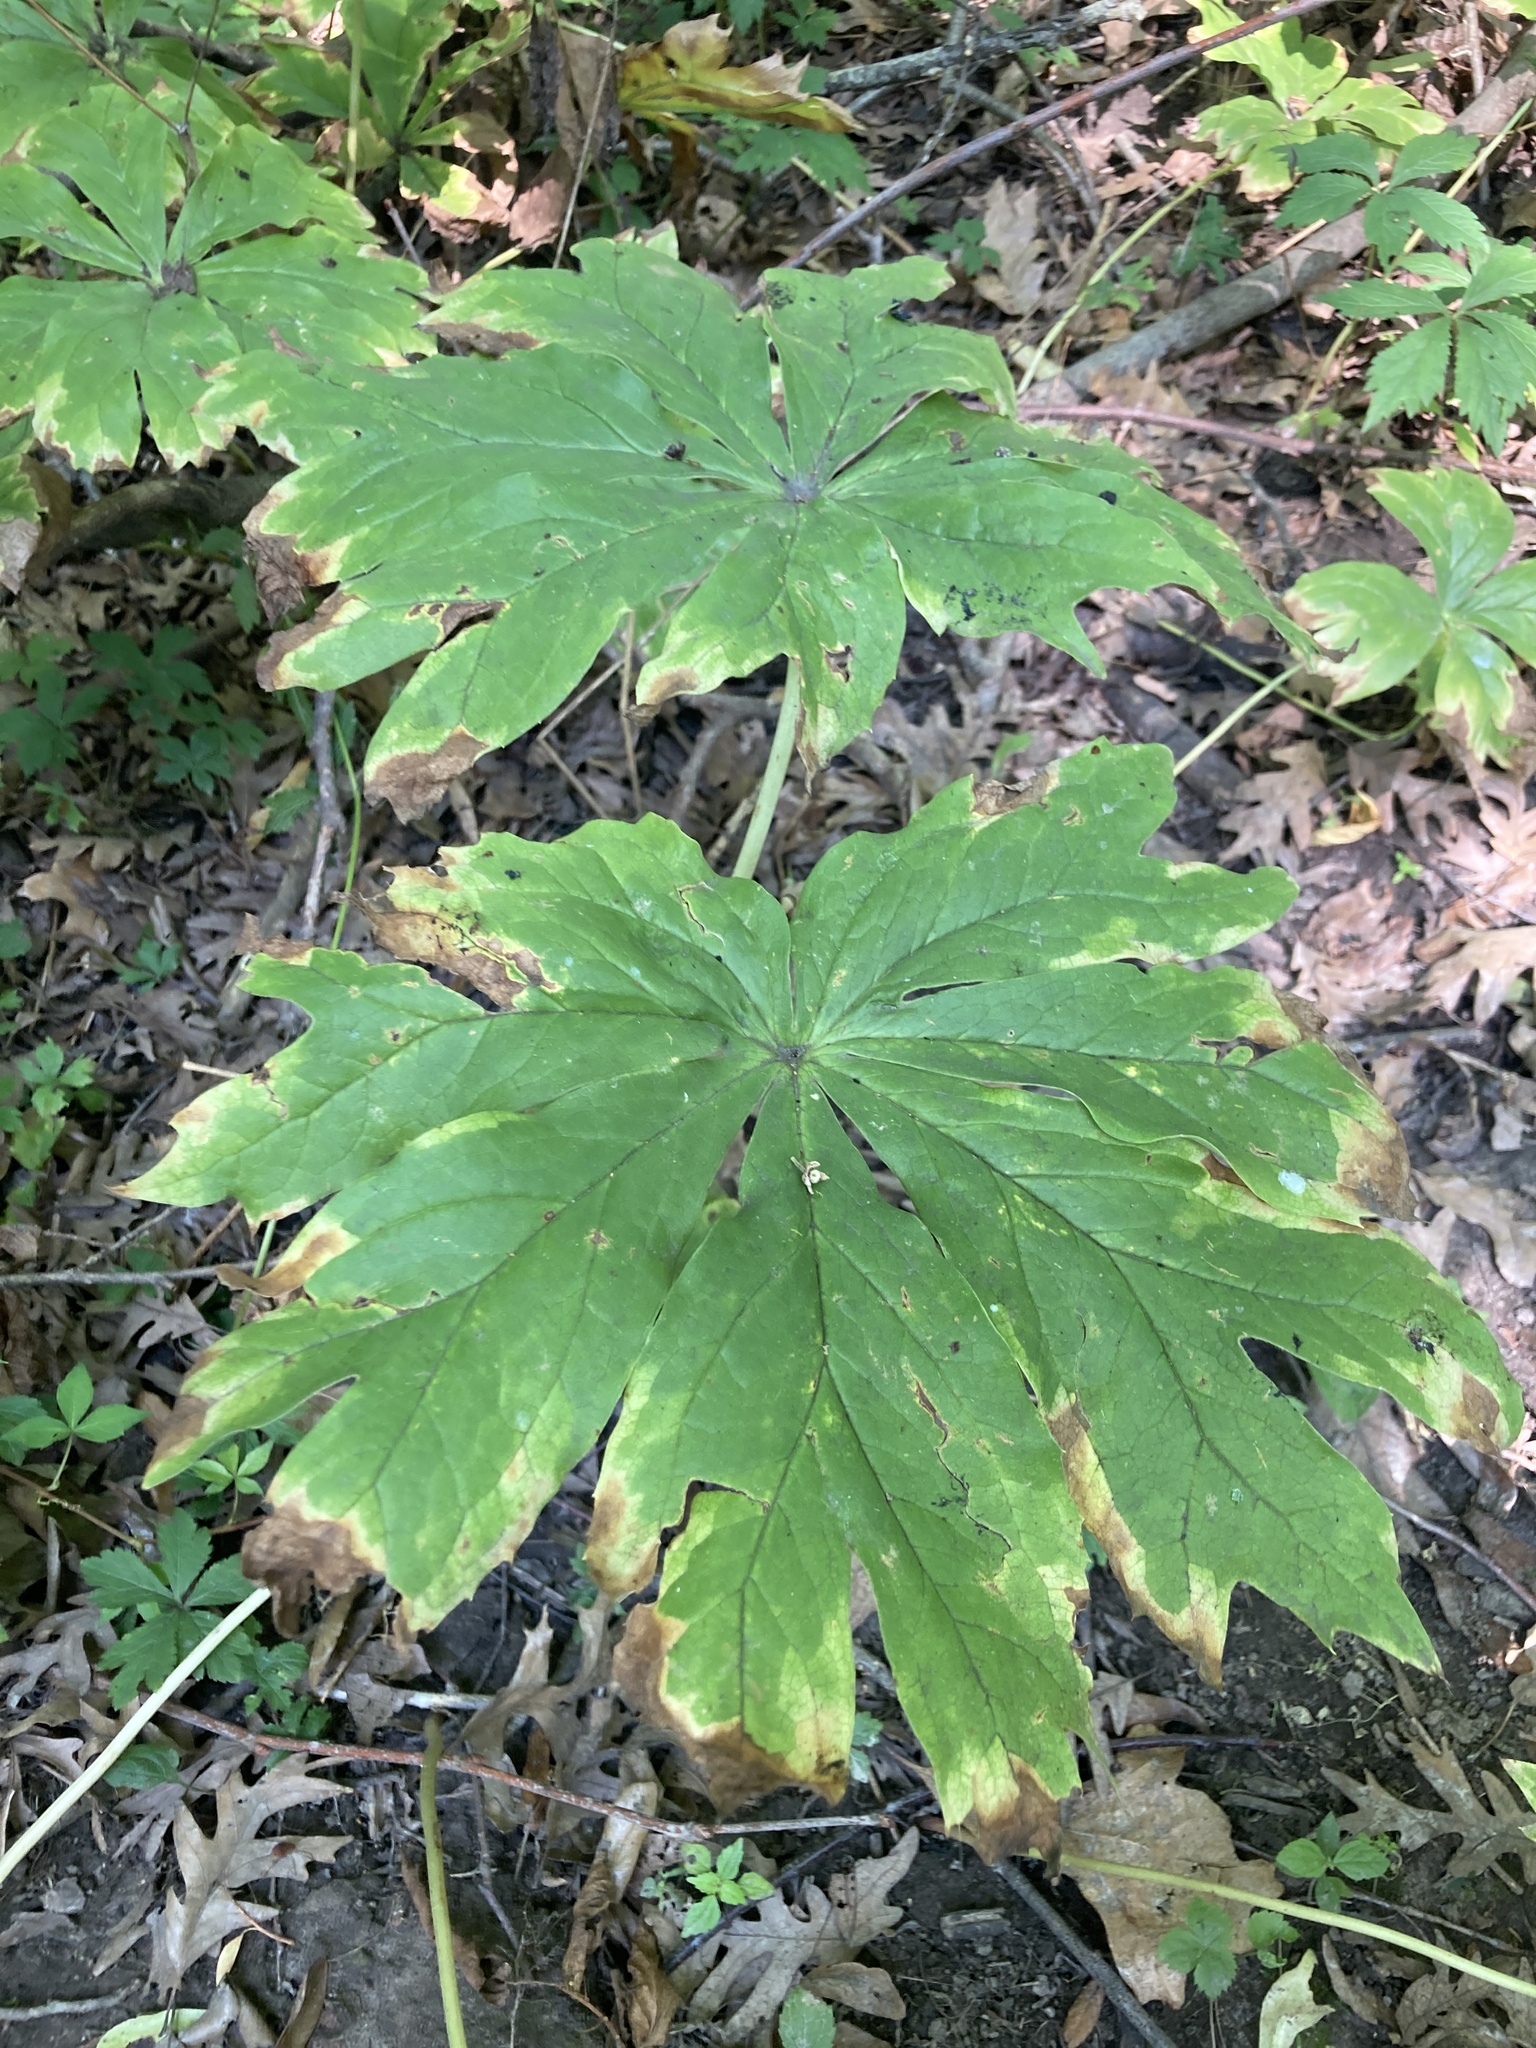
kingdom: Plantae
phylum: Tracheophyta
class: Magnoliopsida
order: Ranunculales
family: Berberidaceae
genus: Podophyllum
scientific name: Podophyllum peltatum
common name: Wild mandrake
